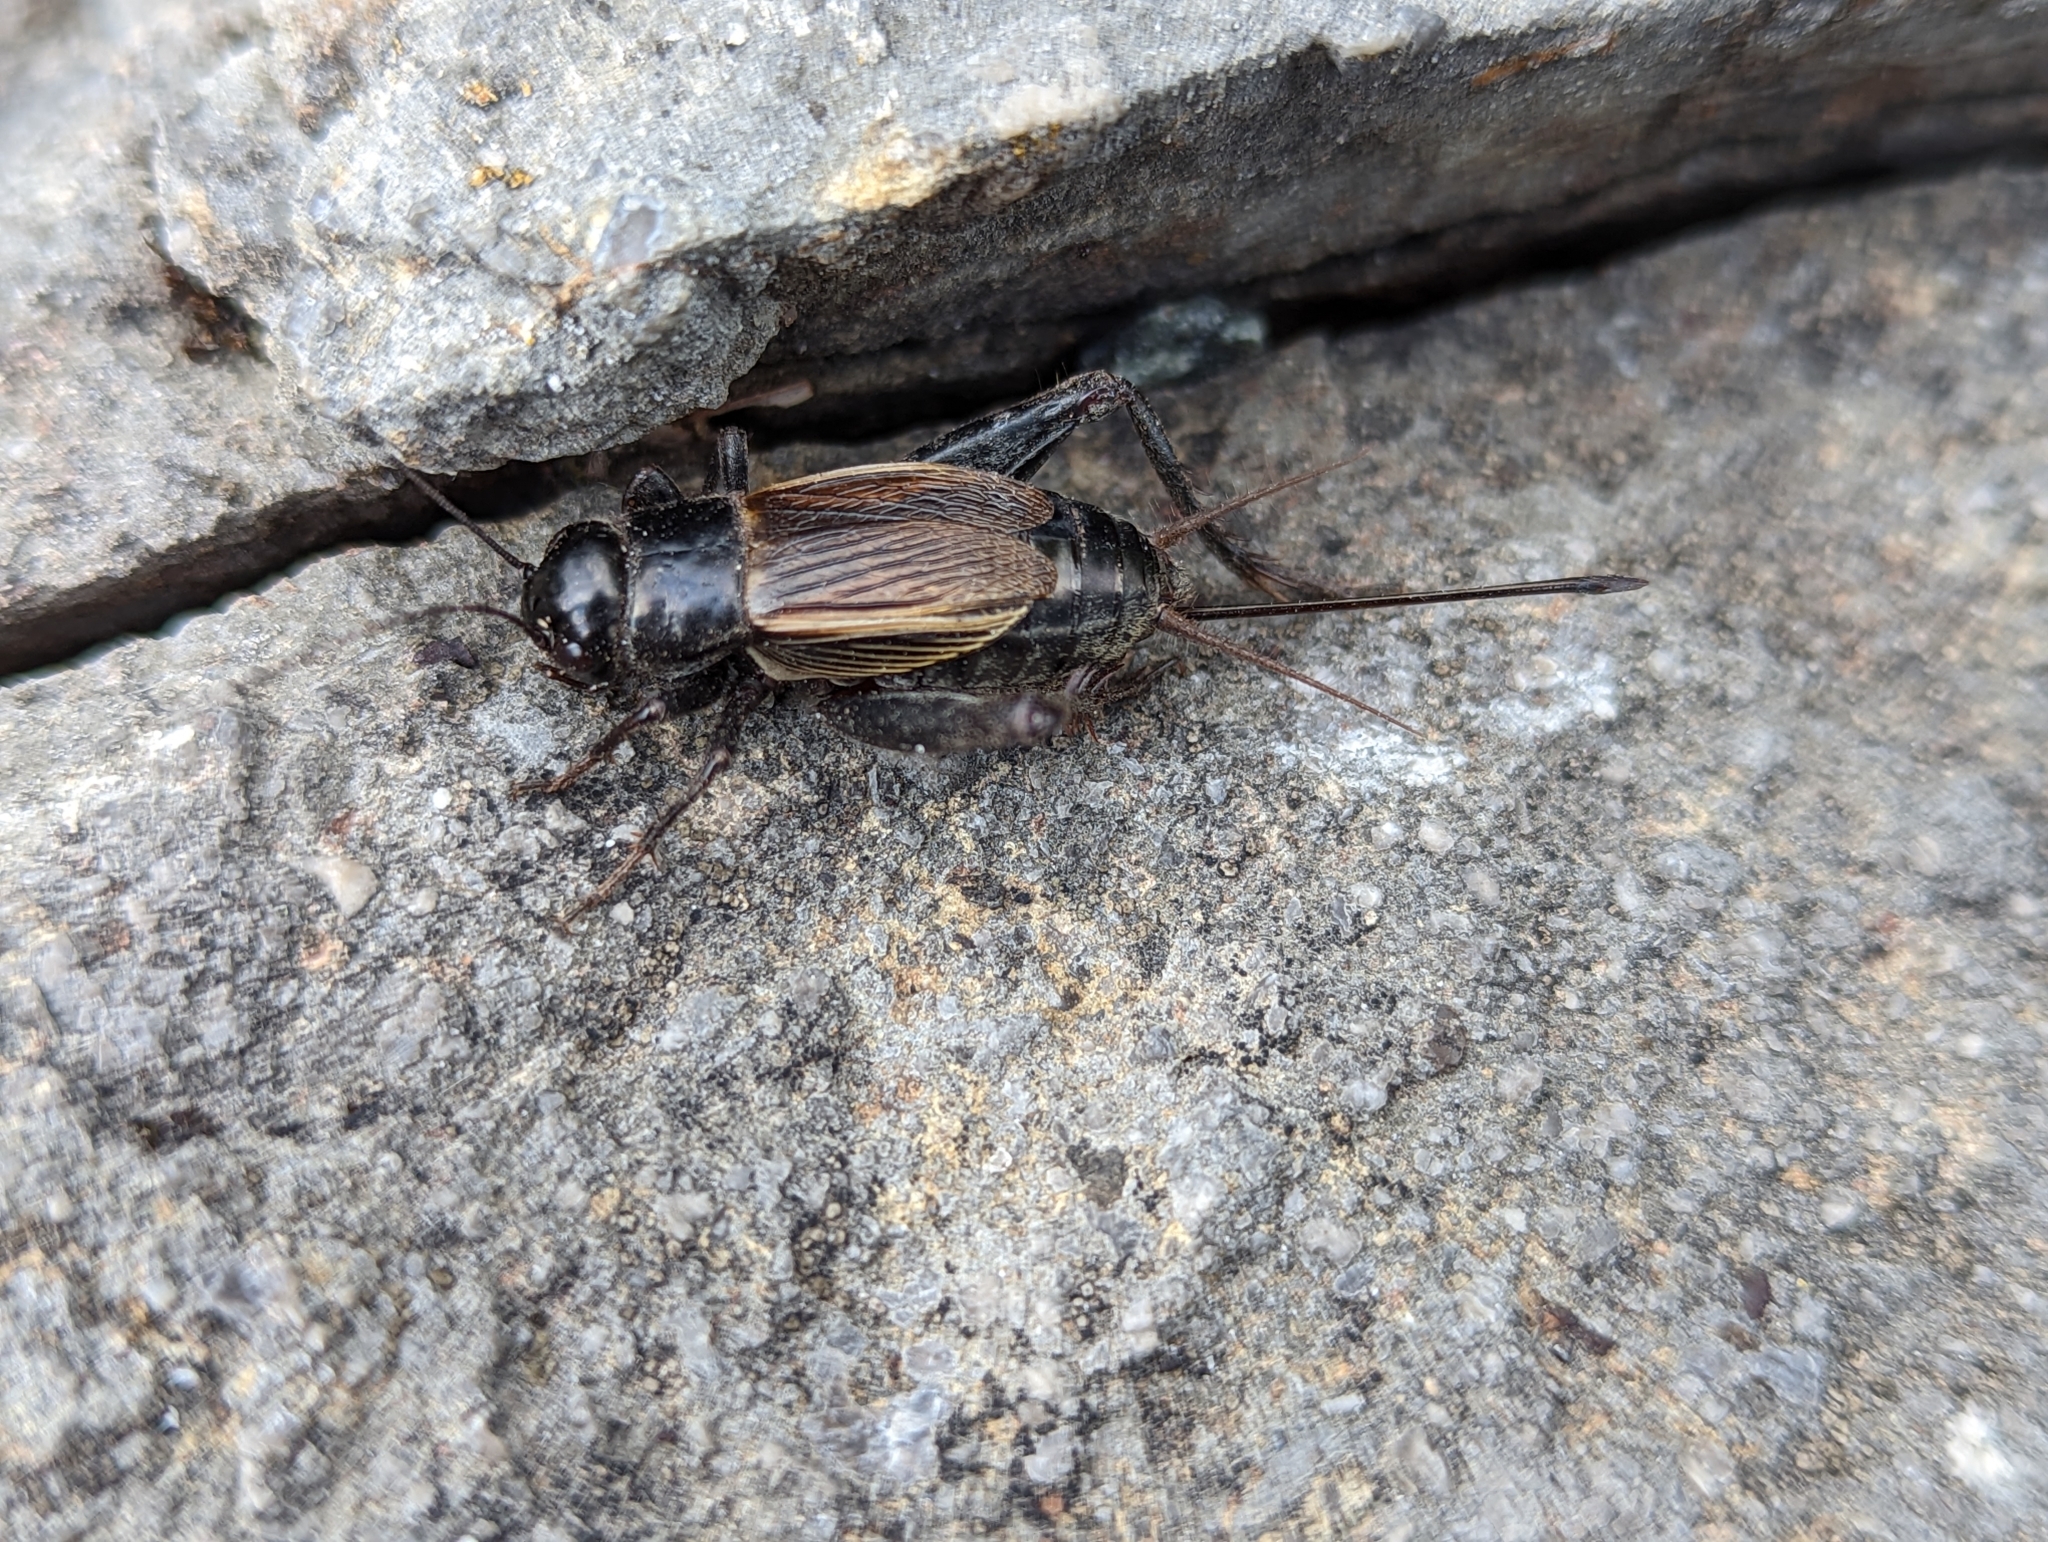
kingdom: Animalia
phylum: Arthropoda
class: Insecta
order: Orthoptera
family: Gryllidae
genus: Gryllus
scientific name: Gryllus pennsylvanicus
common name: Fall field cricket
